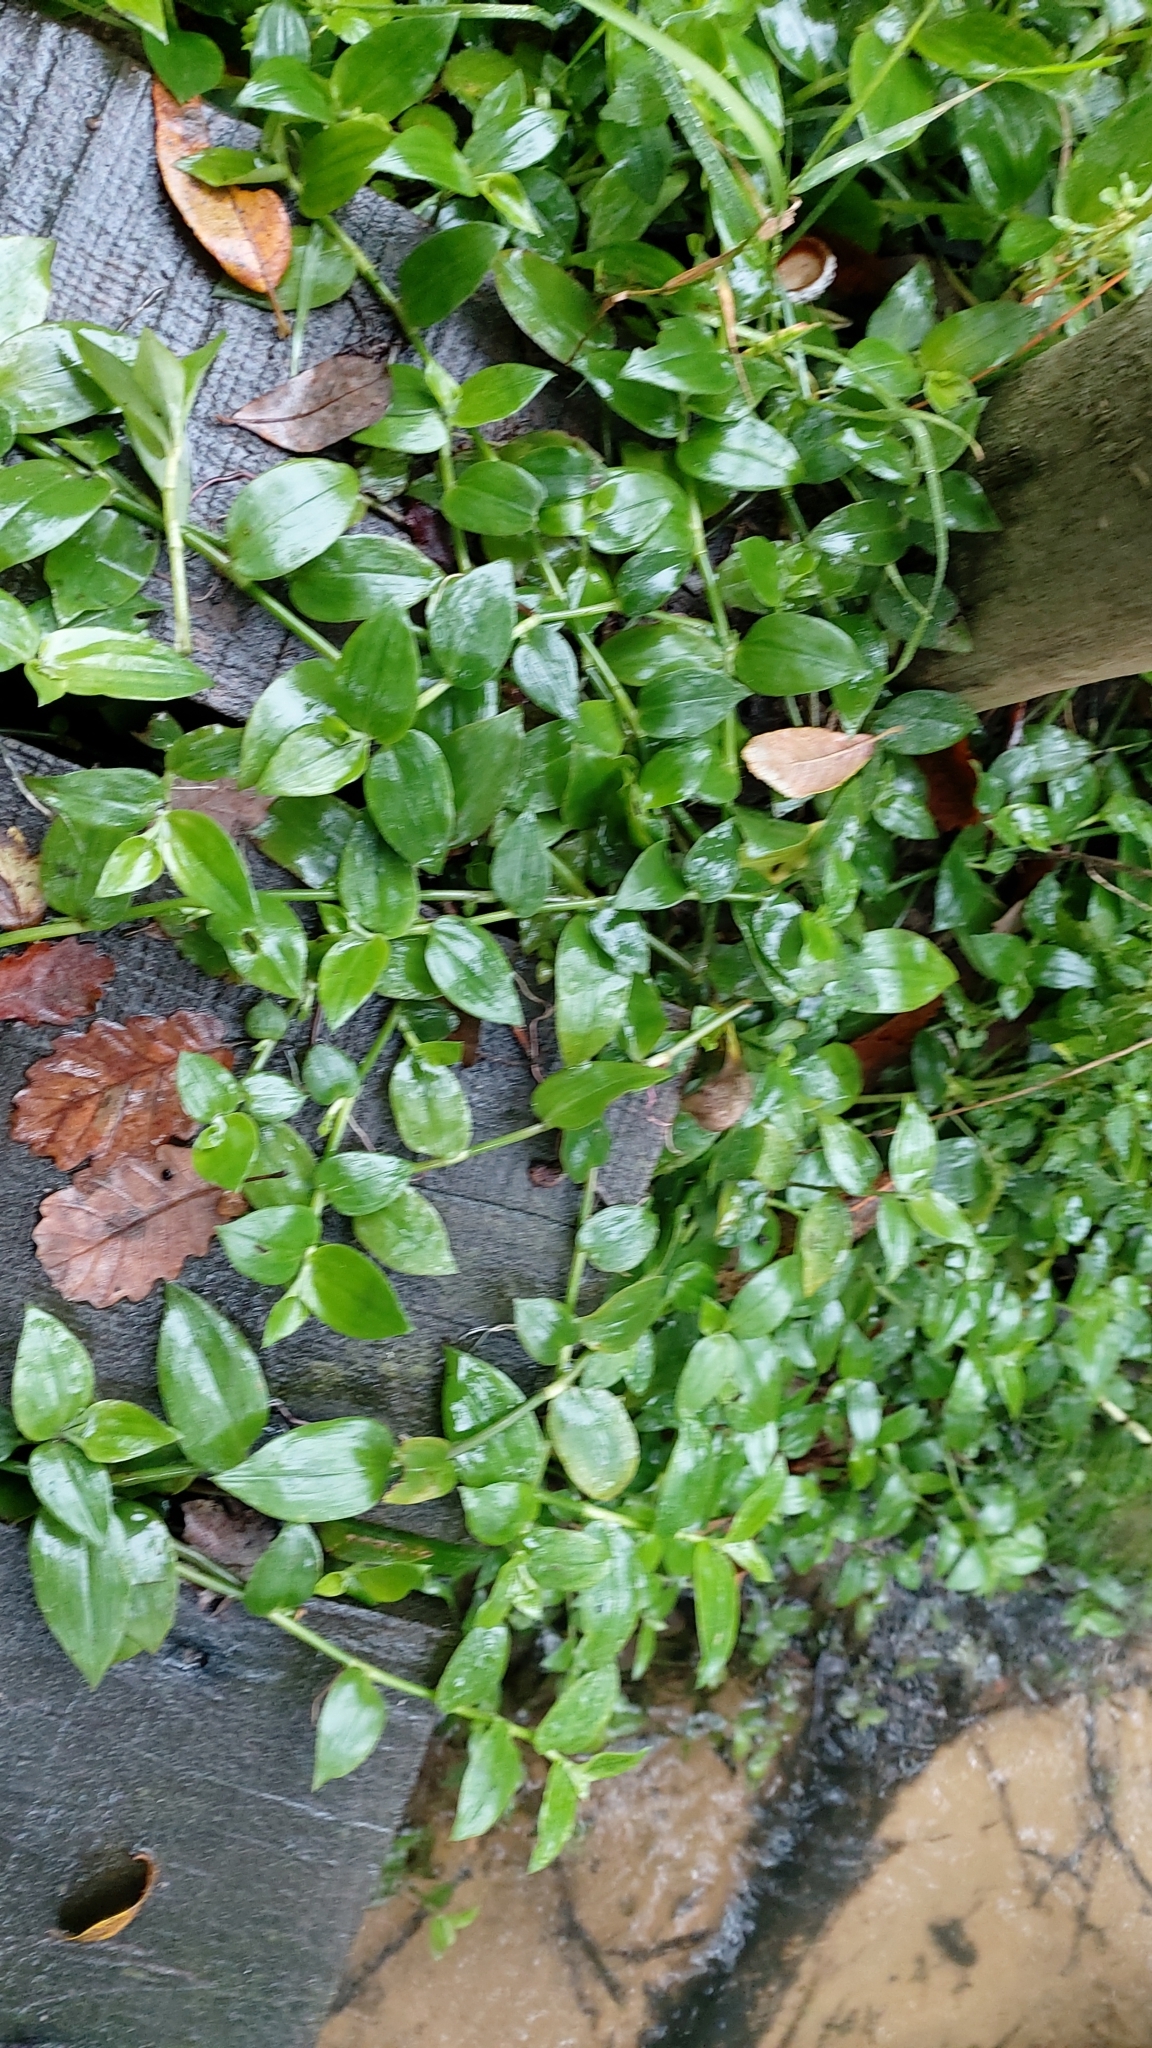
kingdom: Plantae
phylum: Tracheophyta
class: Liliopsida
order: Commelinales
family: Commelinaceae
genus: Tradescantia
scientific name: Tradescantia fluminensis
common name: Wandering-jew
